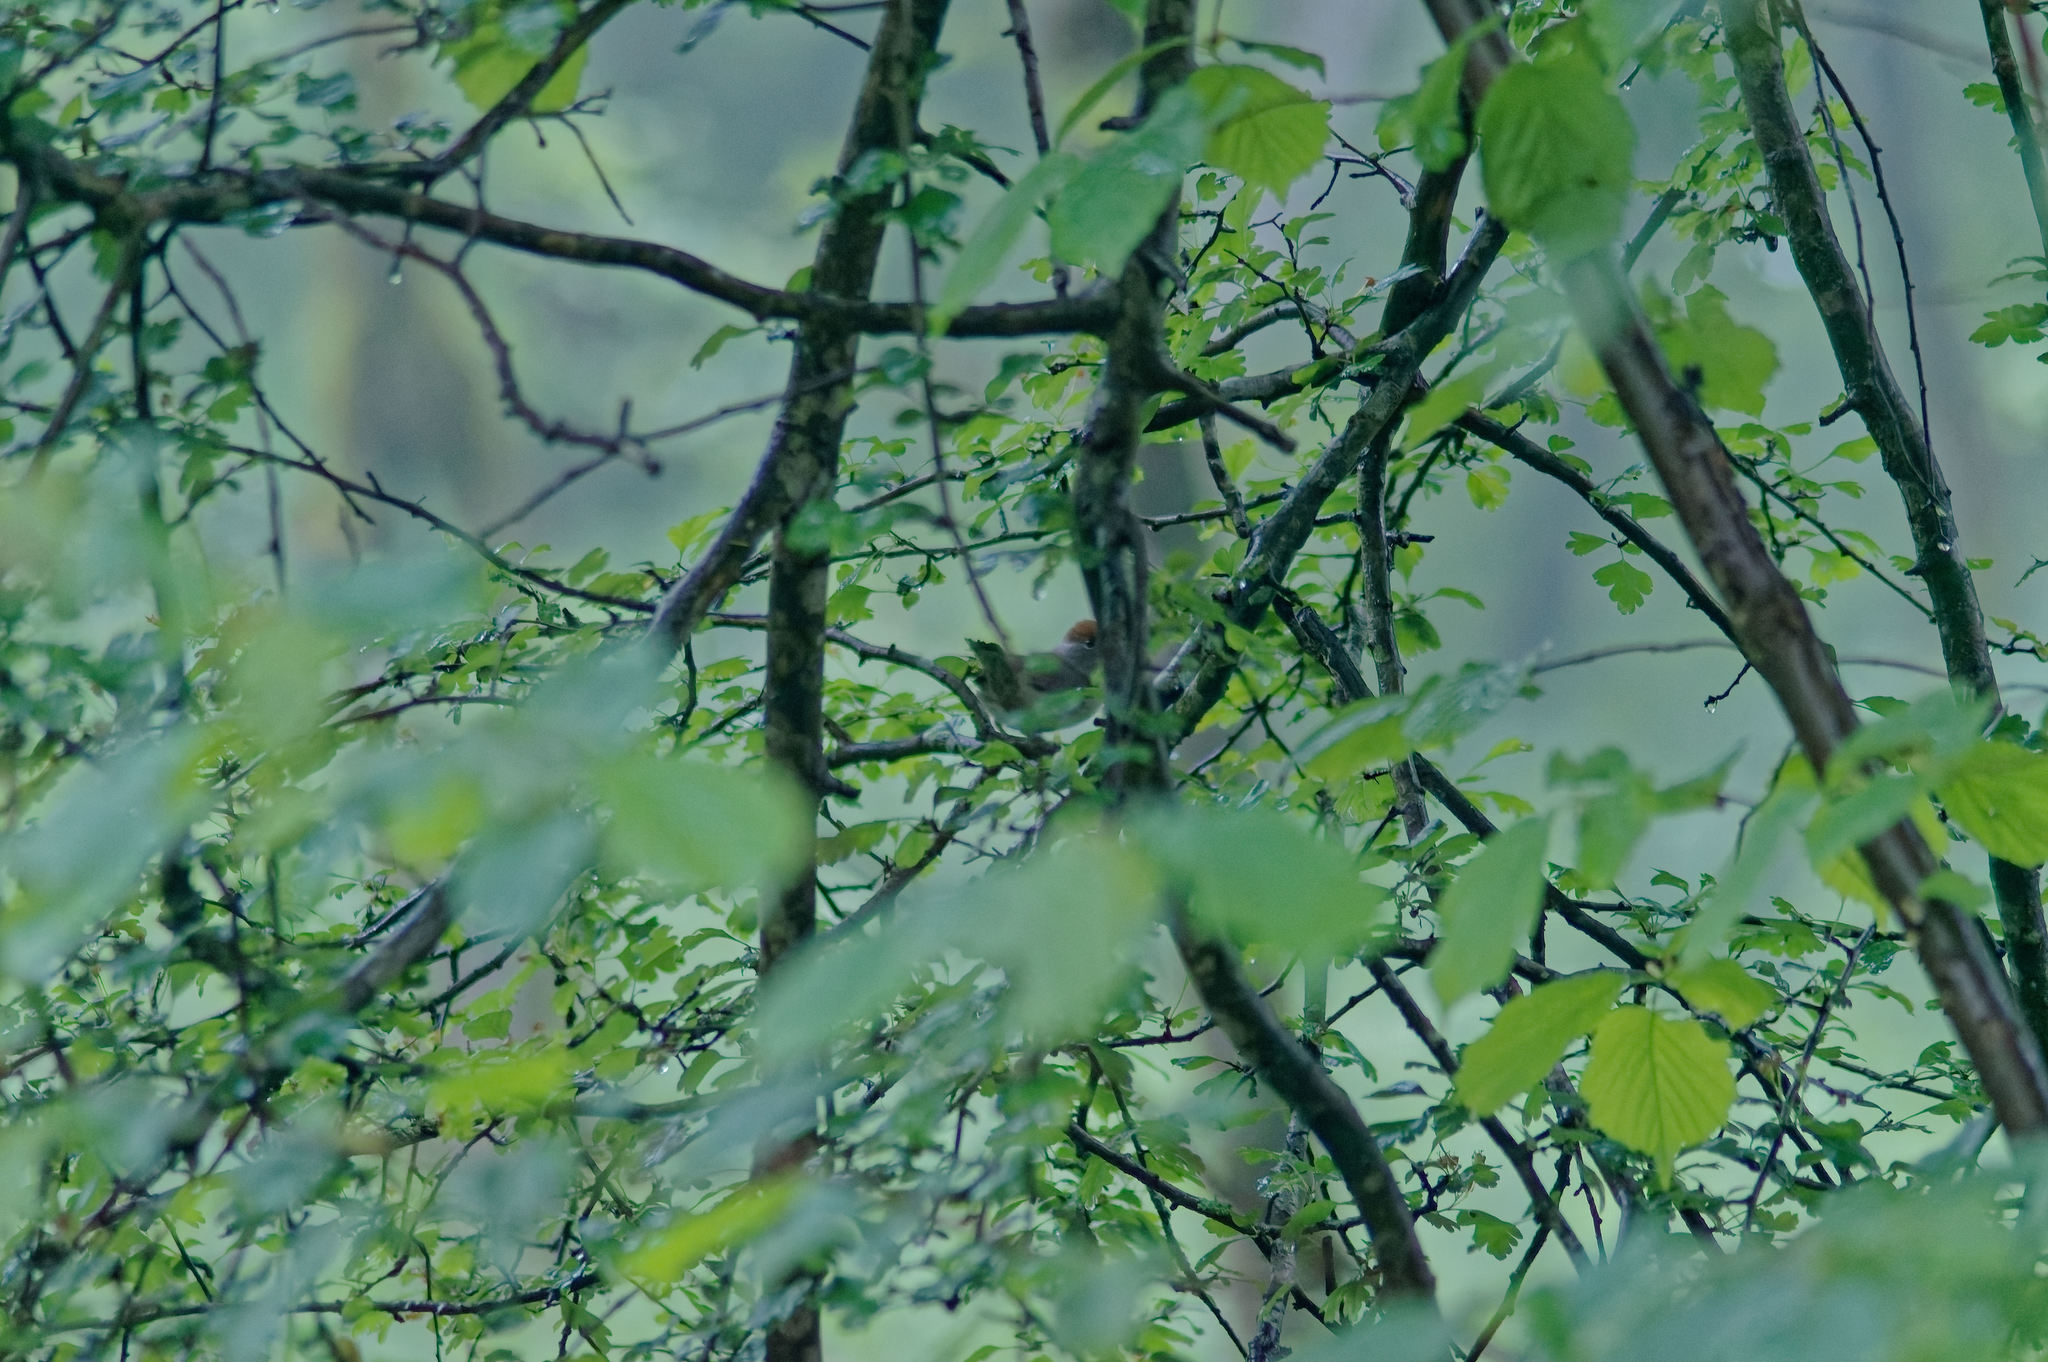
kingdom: Animalia
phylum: Chordata
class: Aves
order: Passeriformes
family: Sylviidae
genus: Sylvia
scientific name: Sylvia atricapilla
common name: Eurasian blackcap
